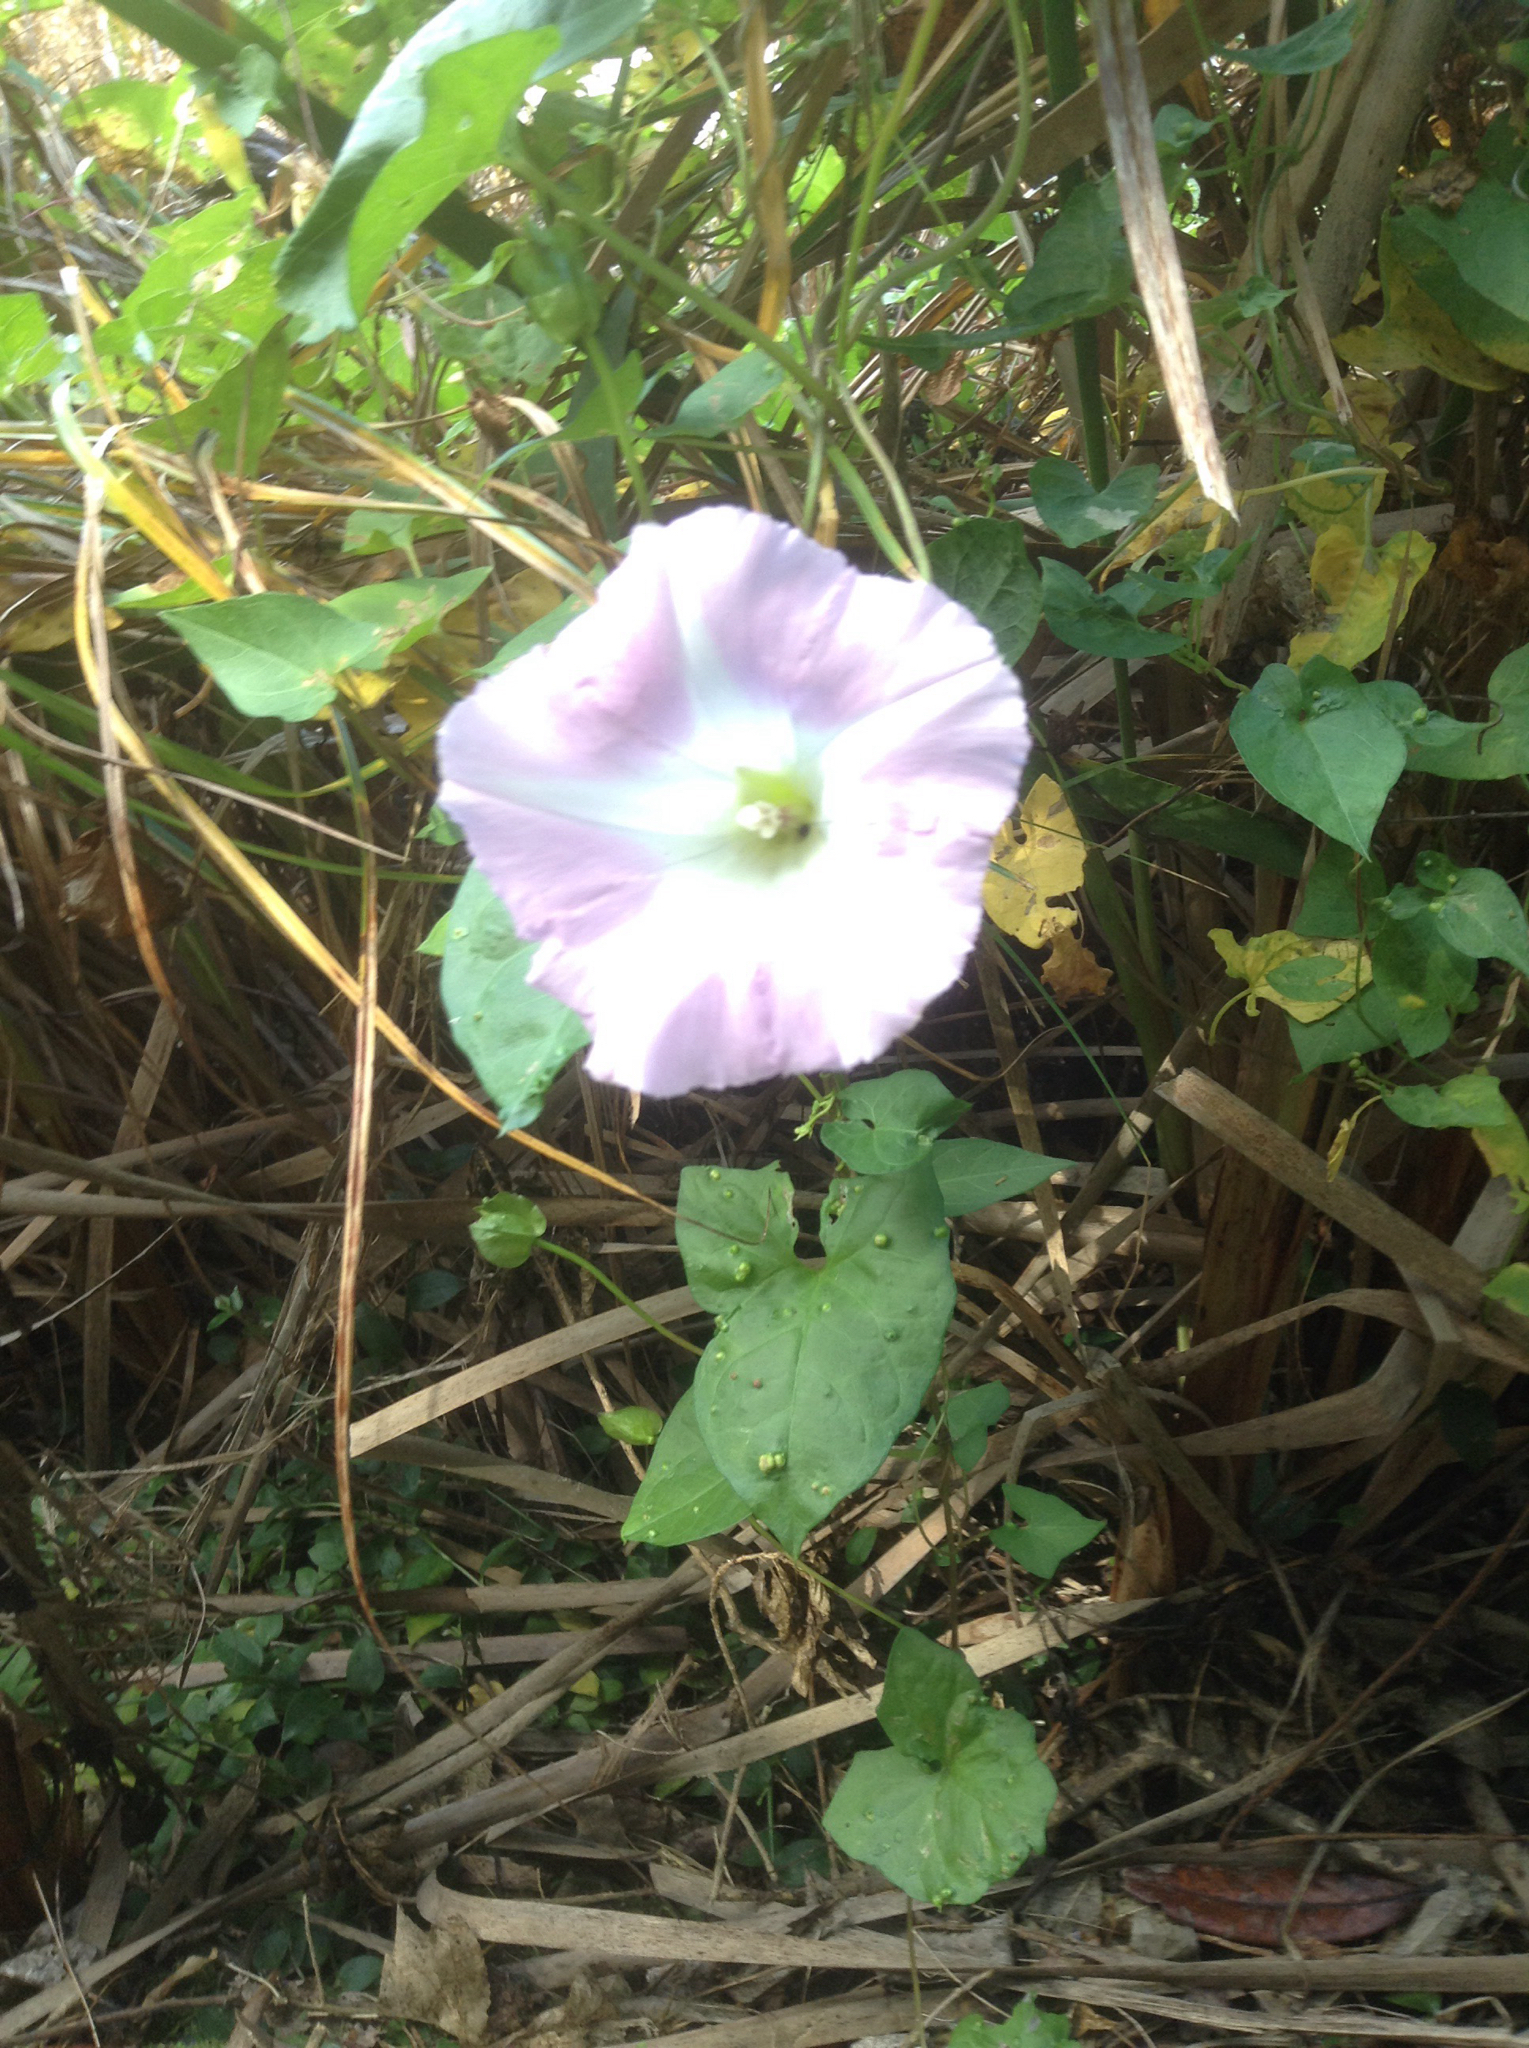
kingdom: Plantae
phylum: Tracheophyta
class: Magnoliopsida
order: Solanales
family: Convolvulaceae
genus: Calystegia
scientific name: Calystegia sepium
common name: Hedge bindweed
